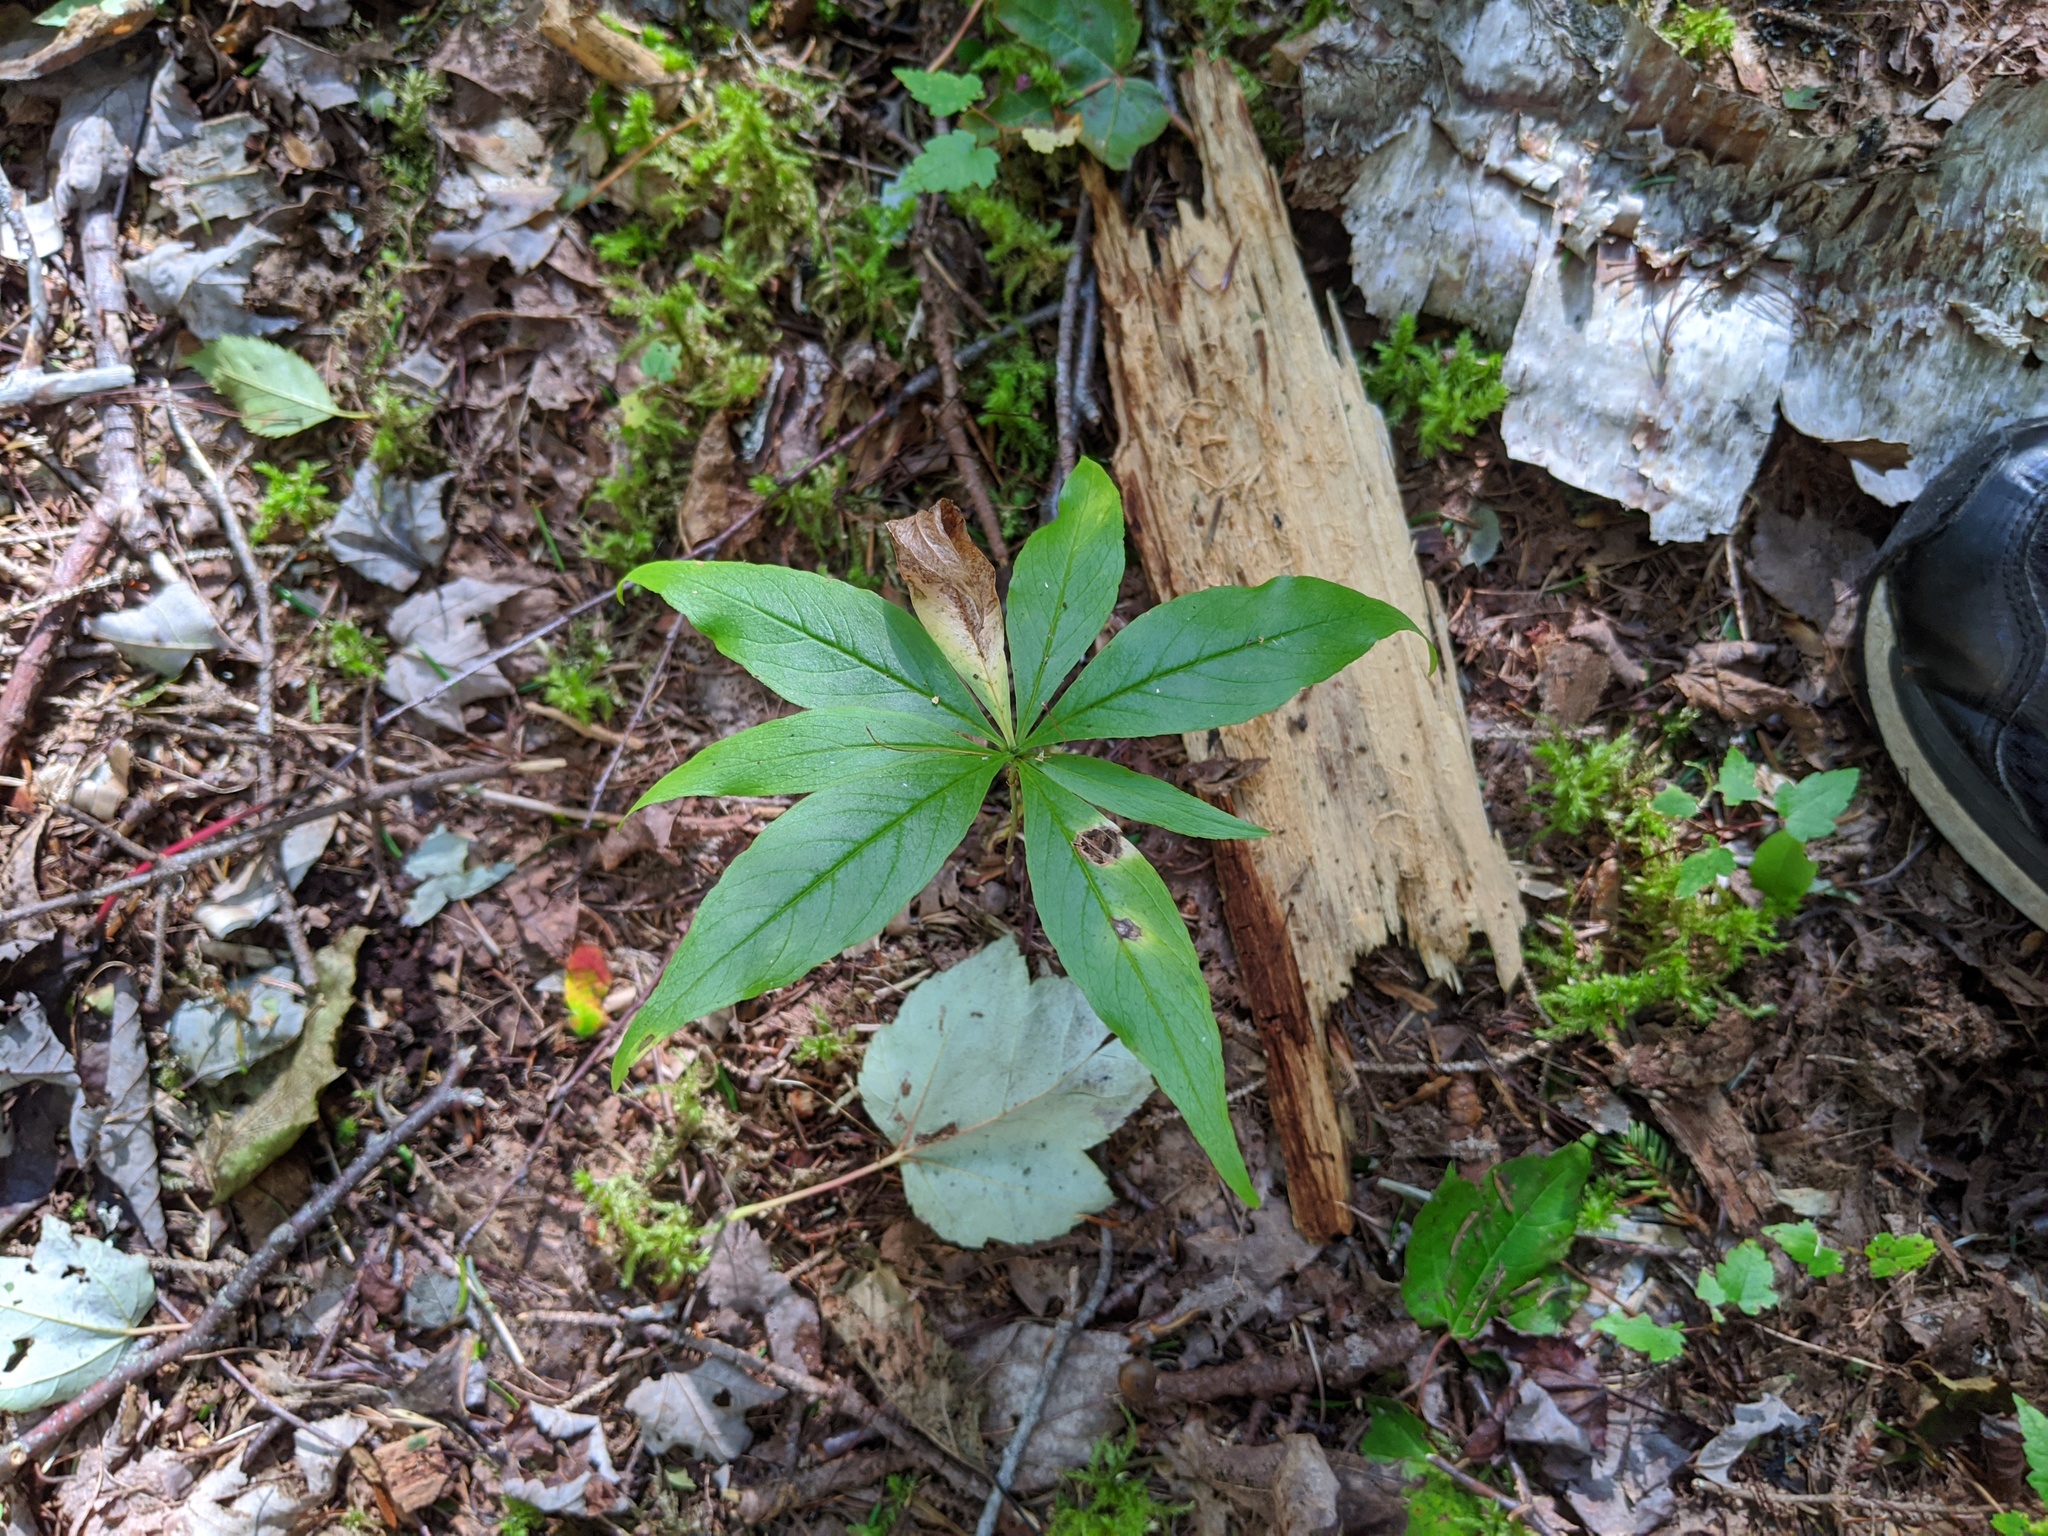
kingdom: Plantae
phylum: Tracheophyta
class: Magnoliopsida
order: Ericales
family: Primulaceae
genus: Lysimachia
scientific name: Lysimachia borealis
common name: American starflower
